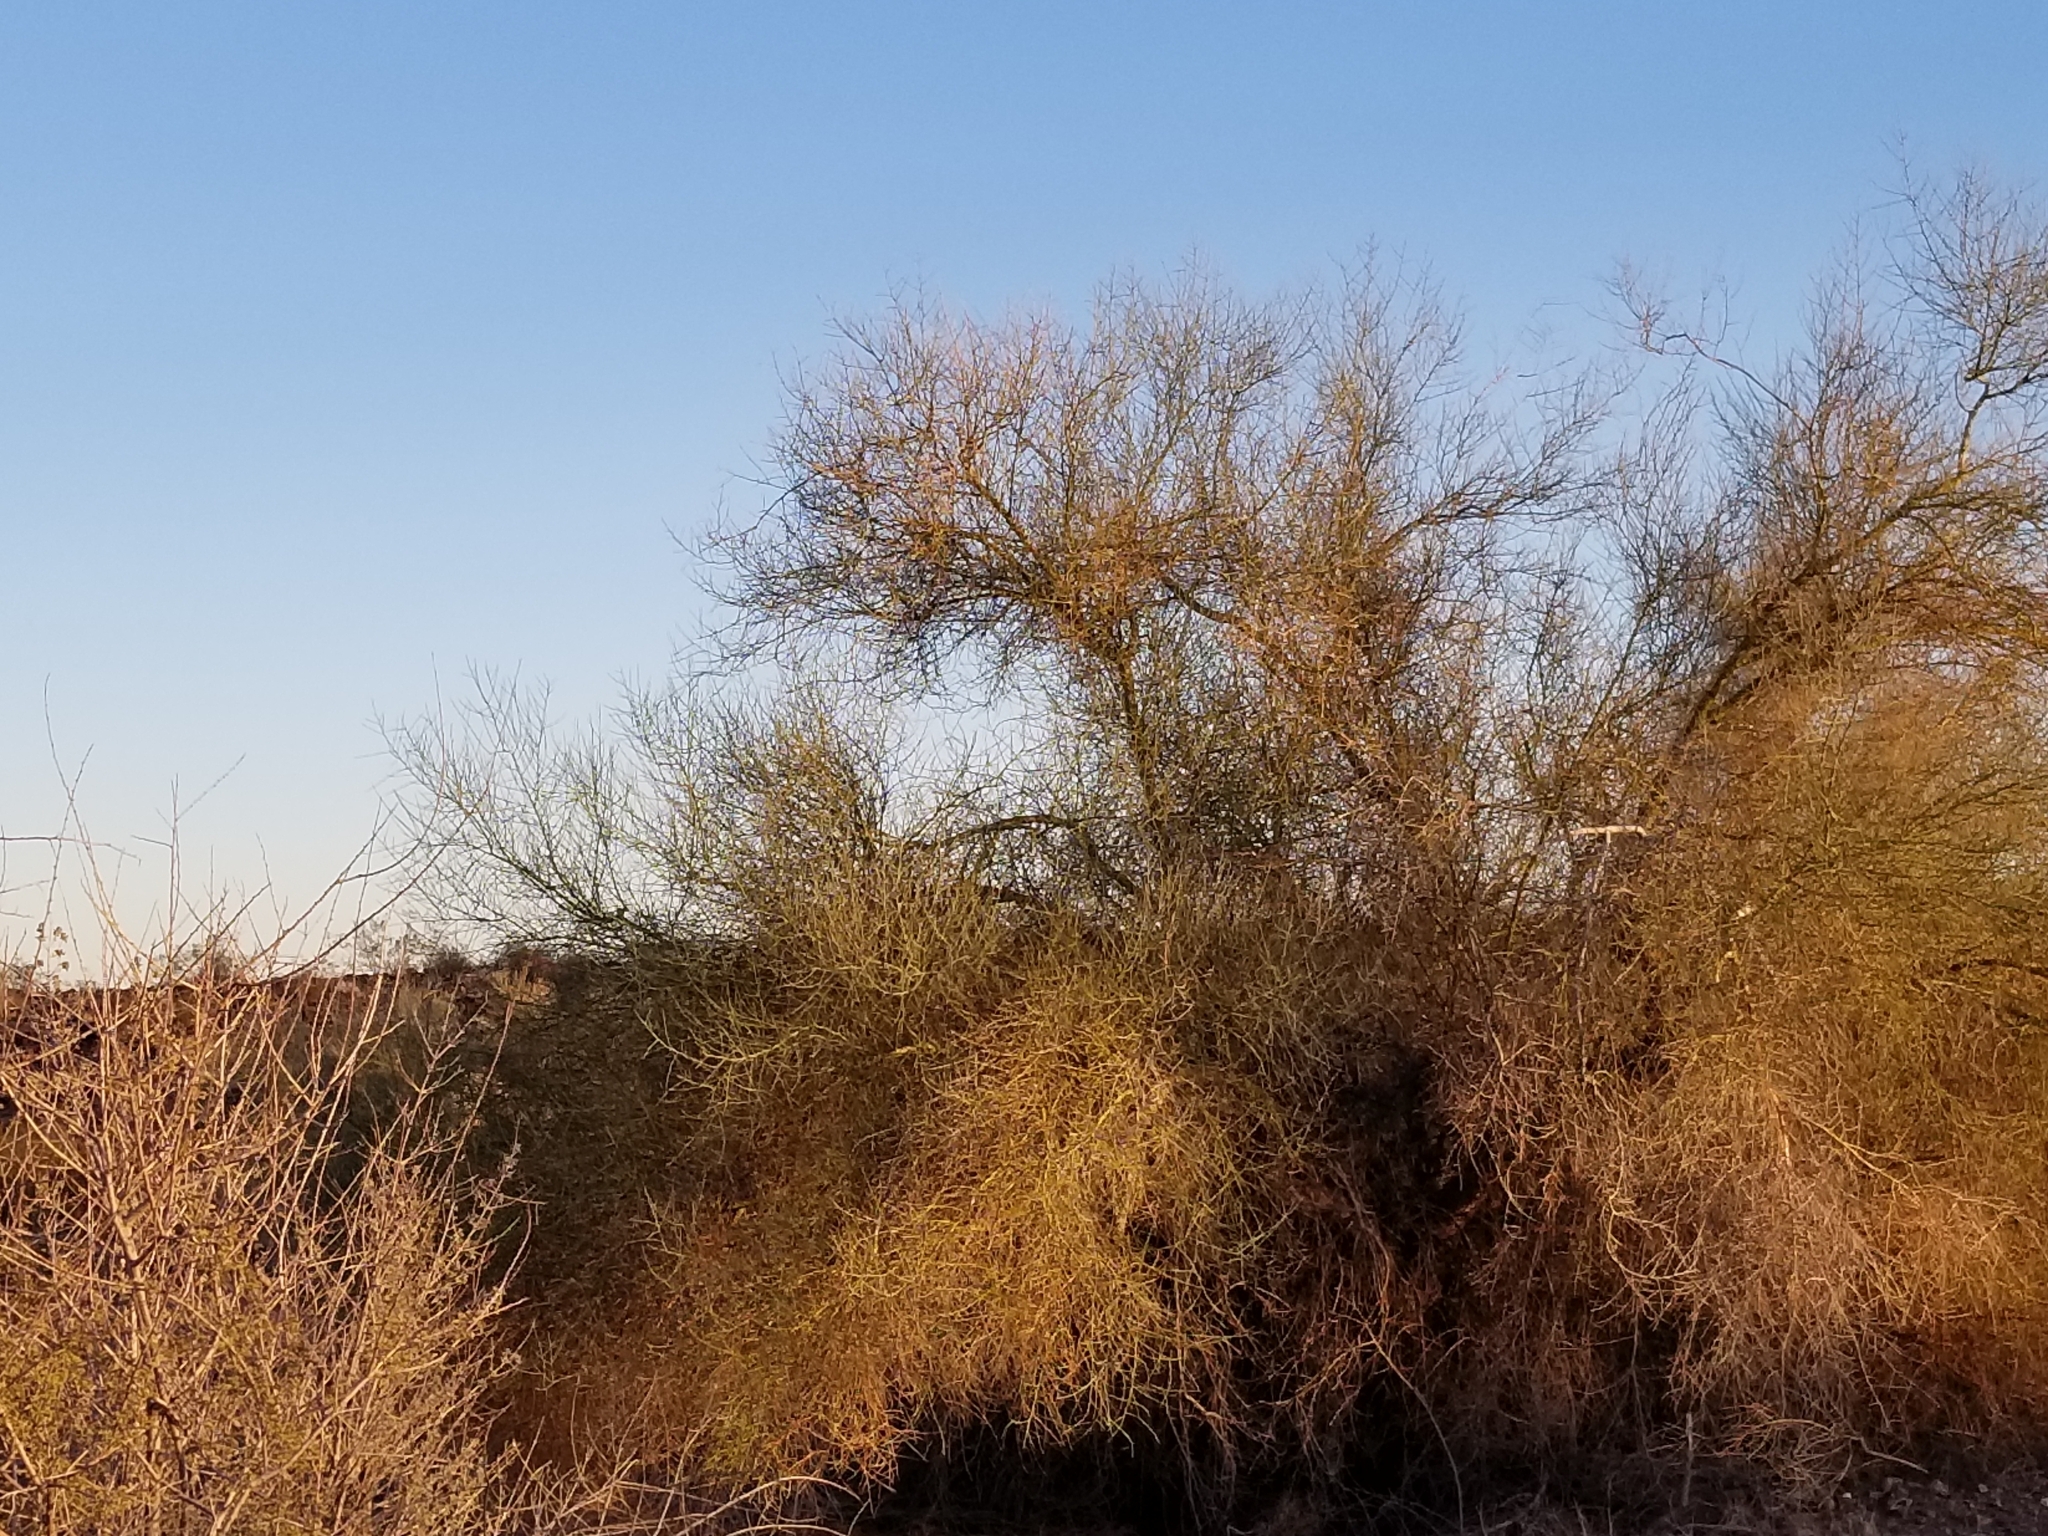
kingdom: Plantae
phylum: Tracheophyta
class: Magnoliopsida
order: Fabales
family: Fabaceae
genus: Parkinsonia
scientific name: Parkinsonia florida
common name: Blue paloverde
